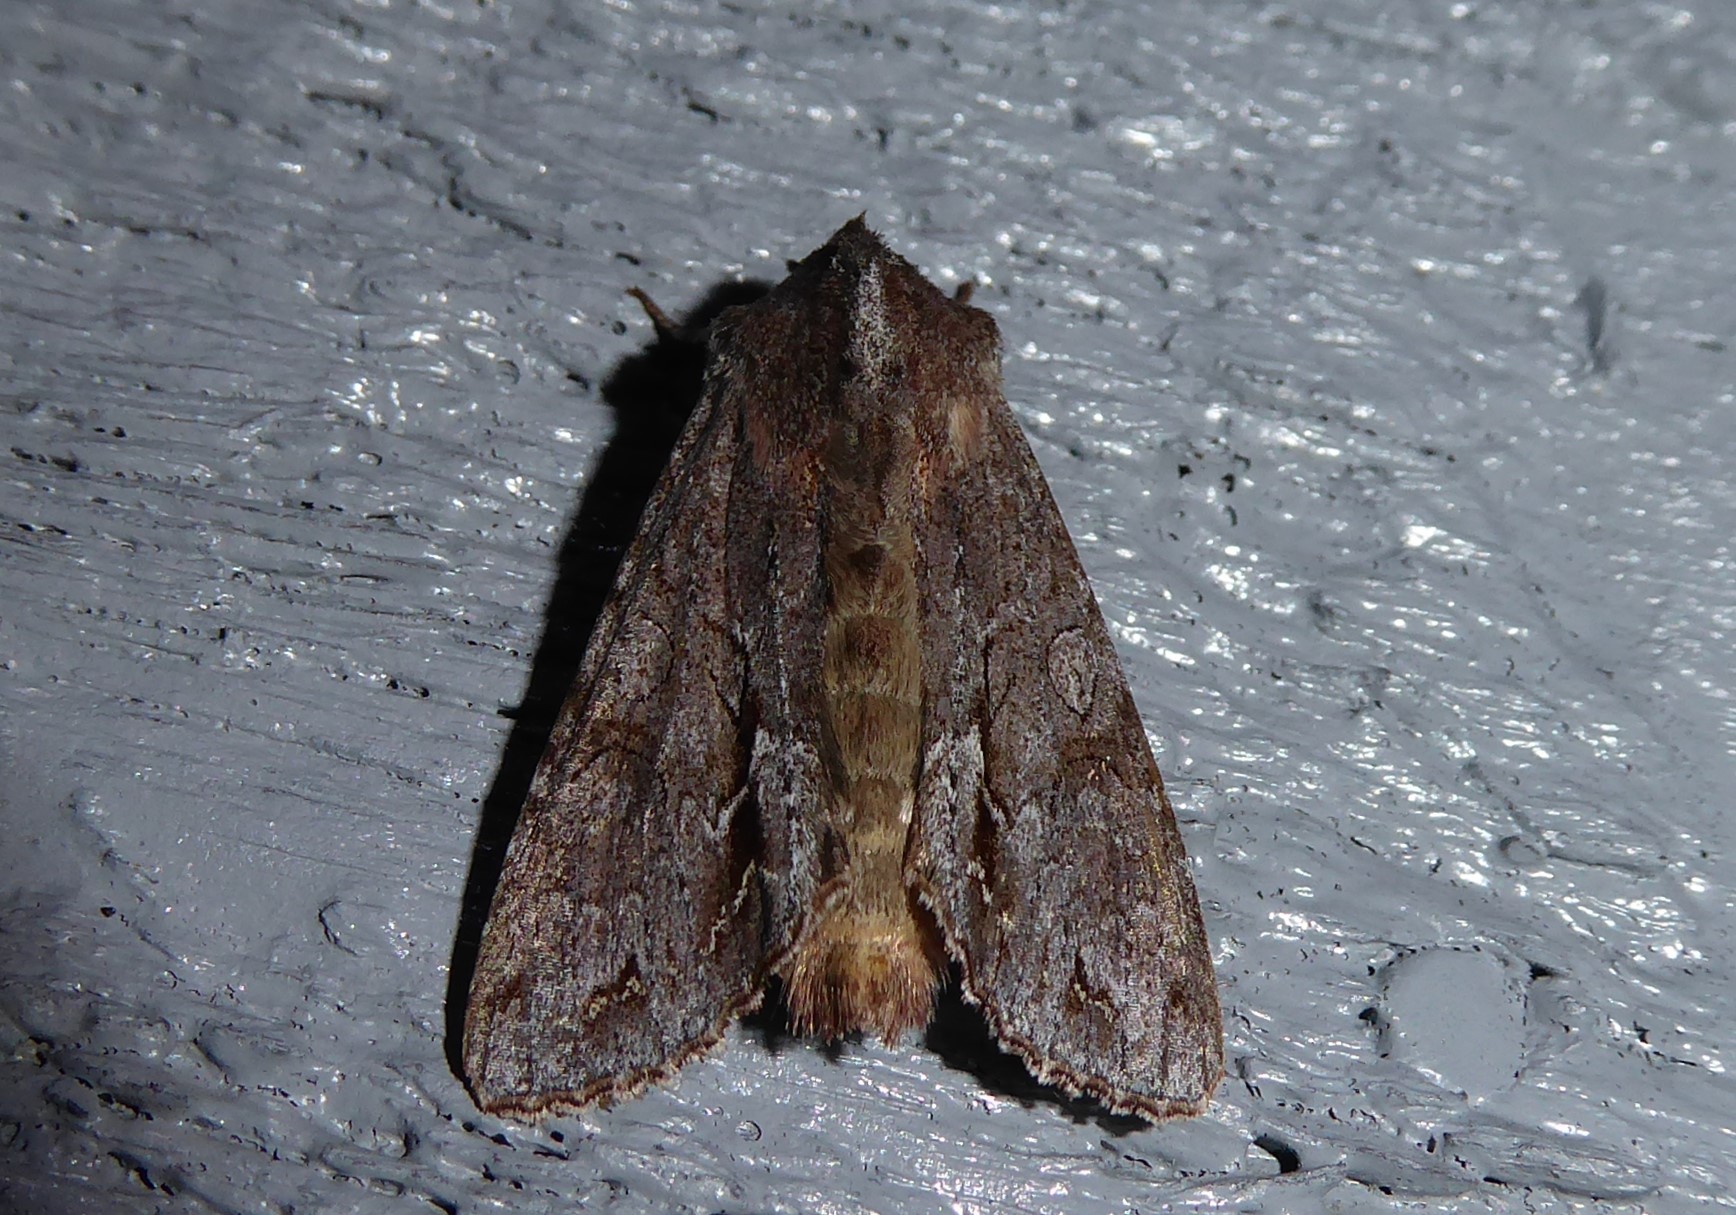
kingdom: Animalia
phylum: Arthropoda
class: Insecta
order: Lepidoptera
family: Noctuidae
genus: Ichneutica
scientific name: Ichneutica
